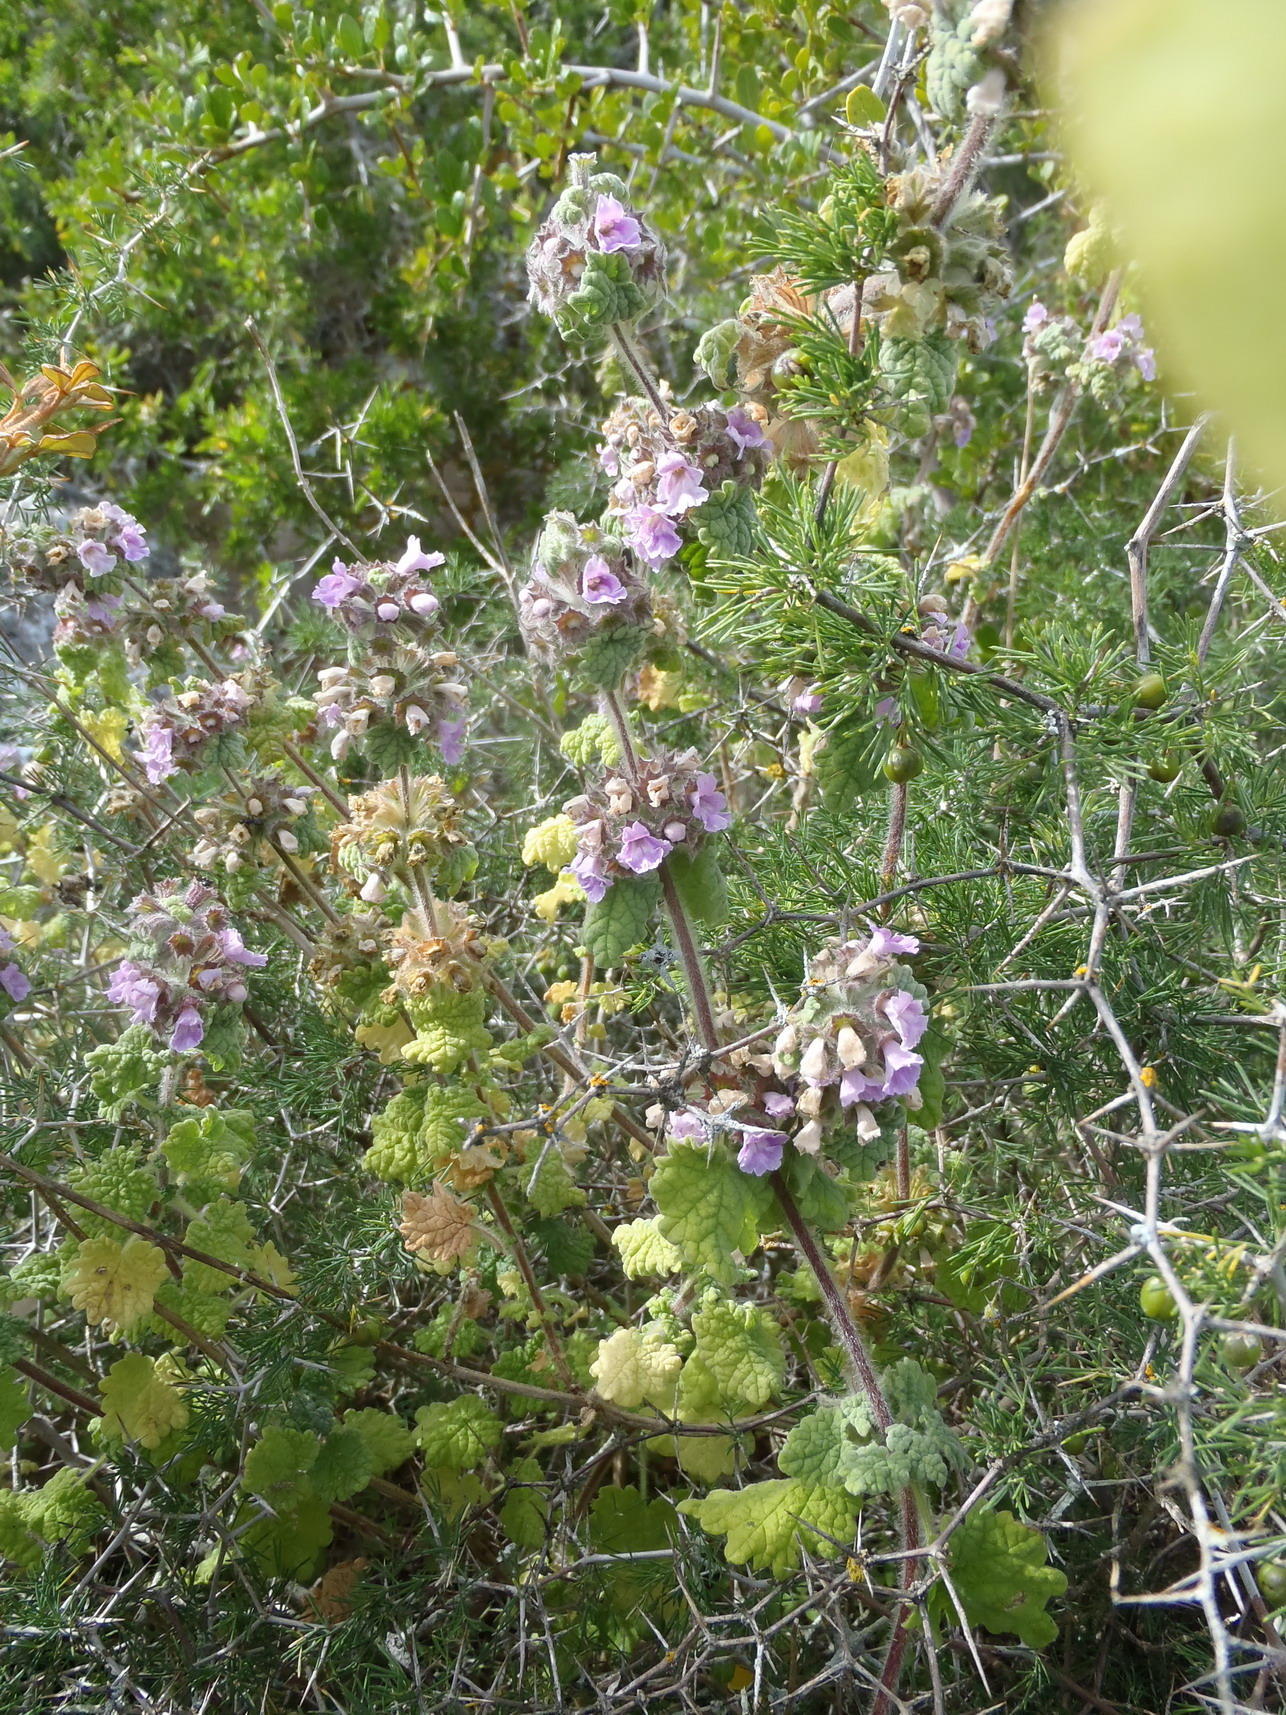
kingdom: Plantae
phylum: Tracheophyta
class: Magnoliopsida
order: Lamiales
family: Lamiaceae
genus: Pseudodictamnus
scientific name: Pseudodictamnus africanus
